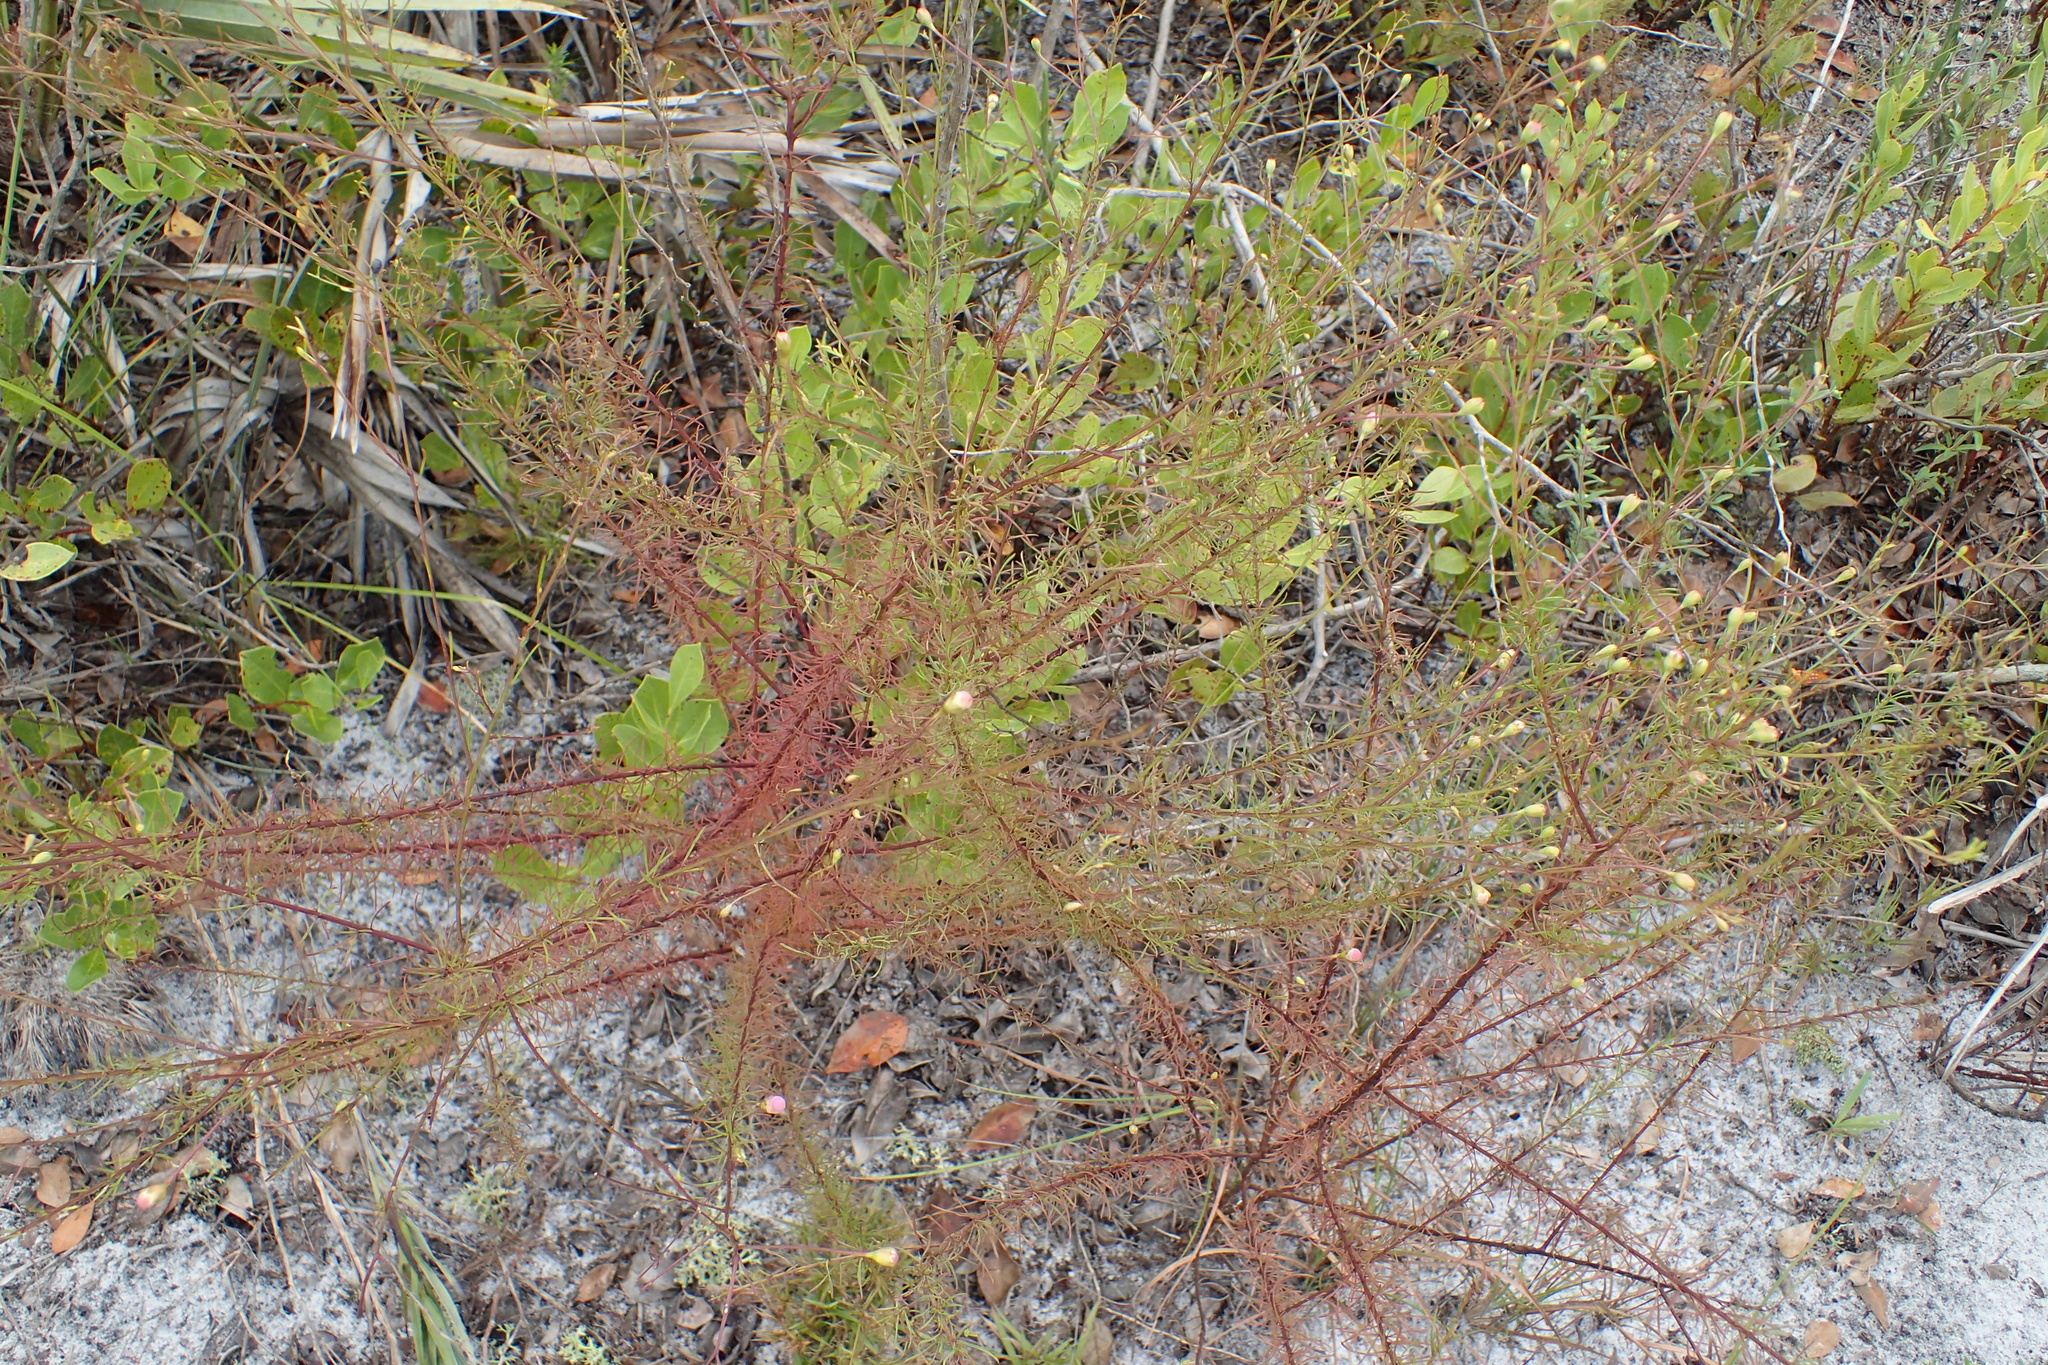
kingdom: Plantae
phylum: Tracheophyta
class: Magnoliopsida
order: Lamiales
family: Orobanchaceae
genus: Agalinis
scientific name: Agalinis filifolia
